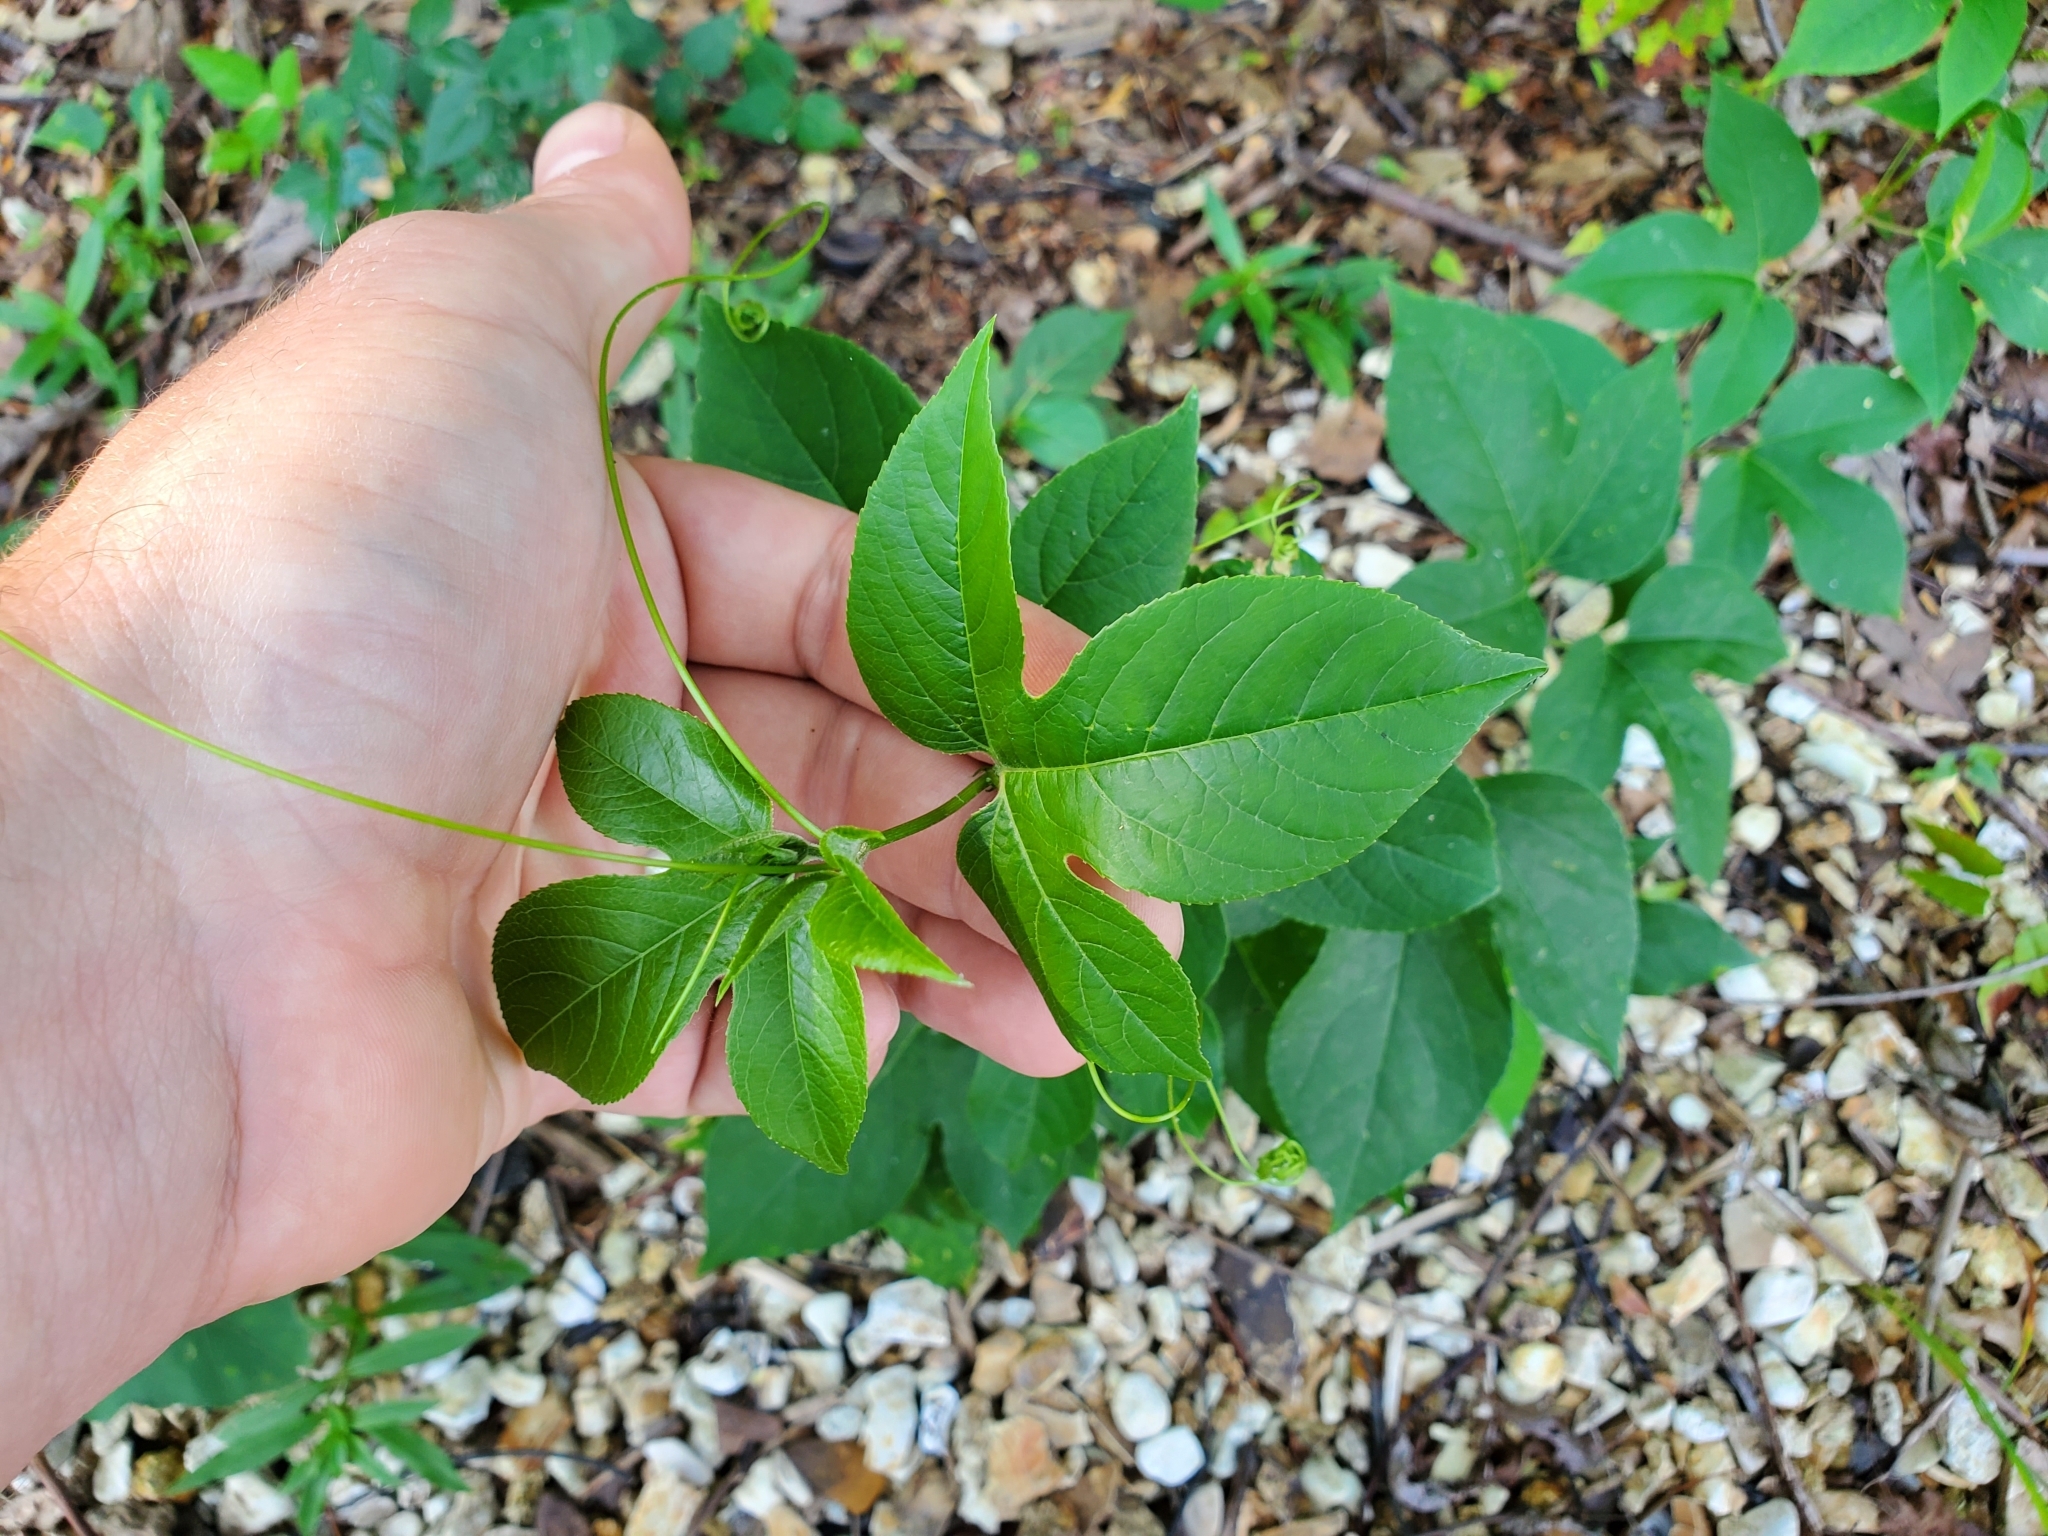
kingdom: Plantae
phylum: Tracheophyta
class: Magnoliopsida
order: Malpighiales
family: Passifloraceae
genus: Passiflora
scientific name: Passiflora incarnata
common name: Apricot-vine
